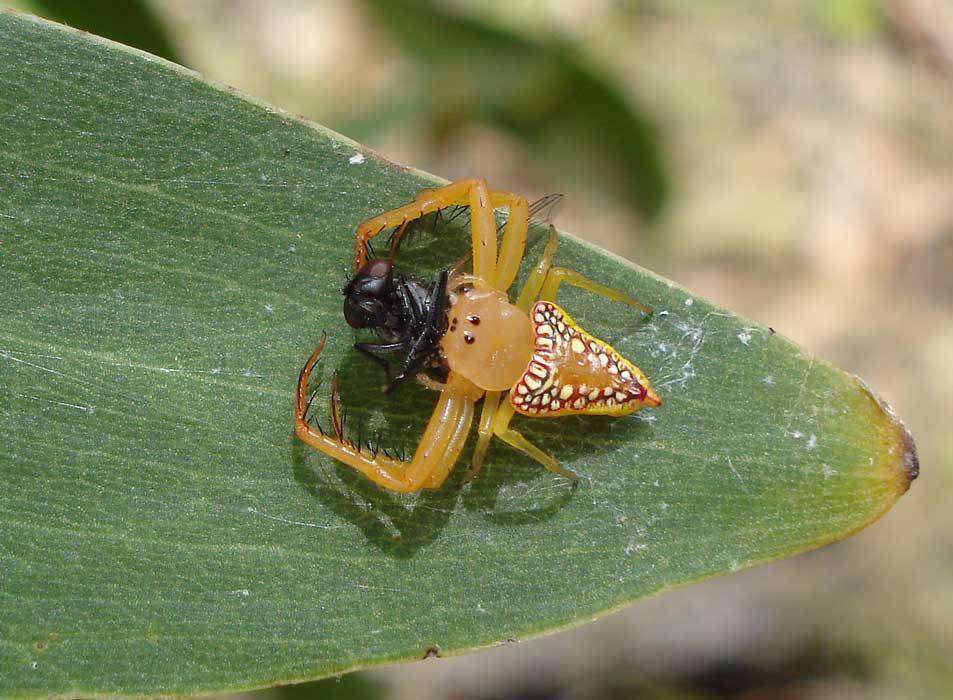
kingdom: Animalia
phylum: Arthropoda
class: Arachnida
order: Araneae
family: Arkyidae
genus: Arkys
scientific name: Arkys walckenaeri
